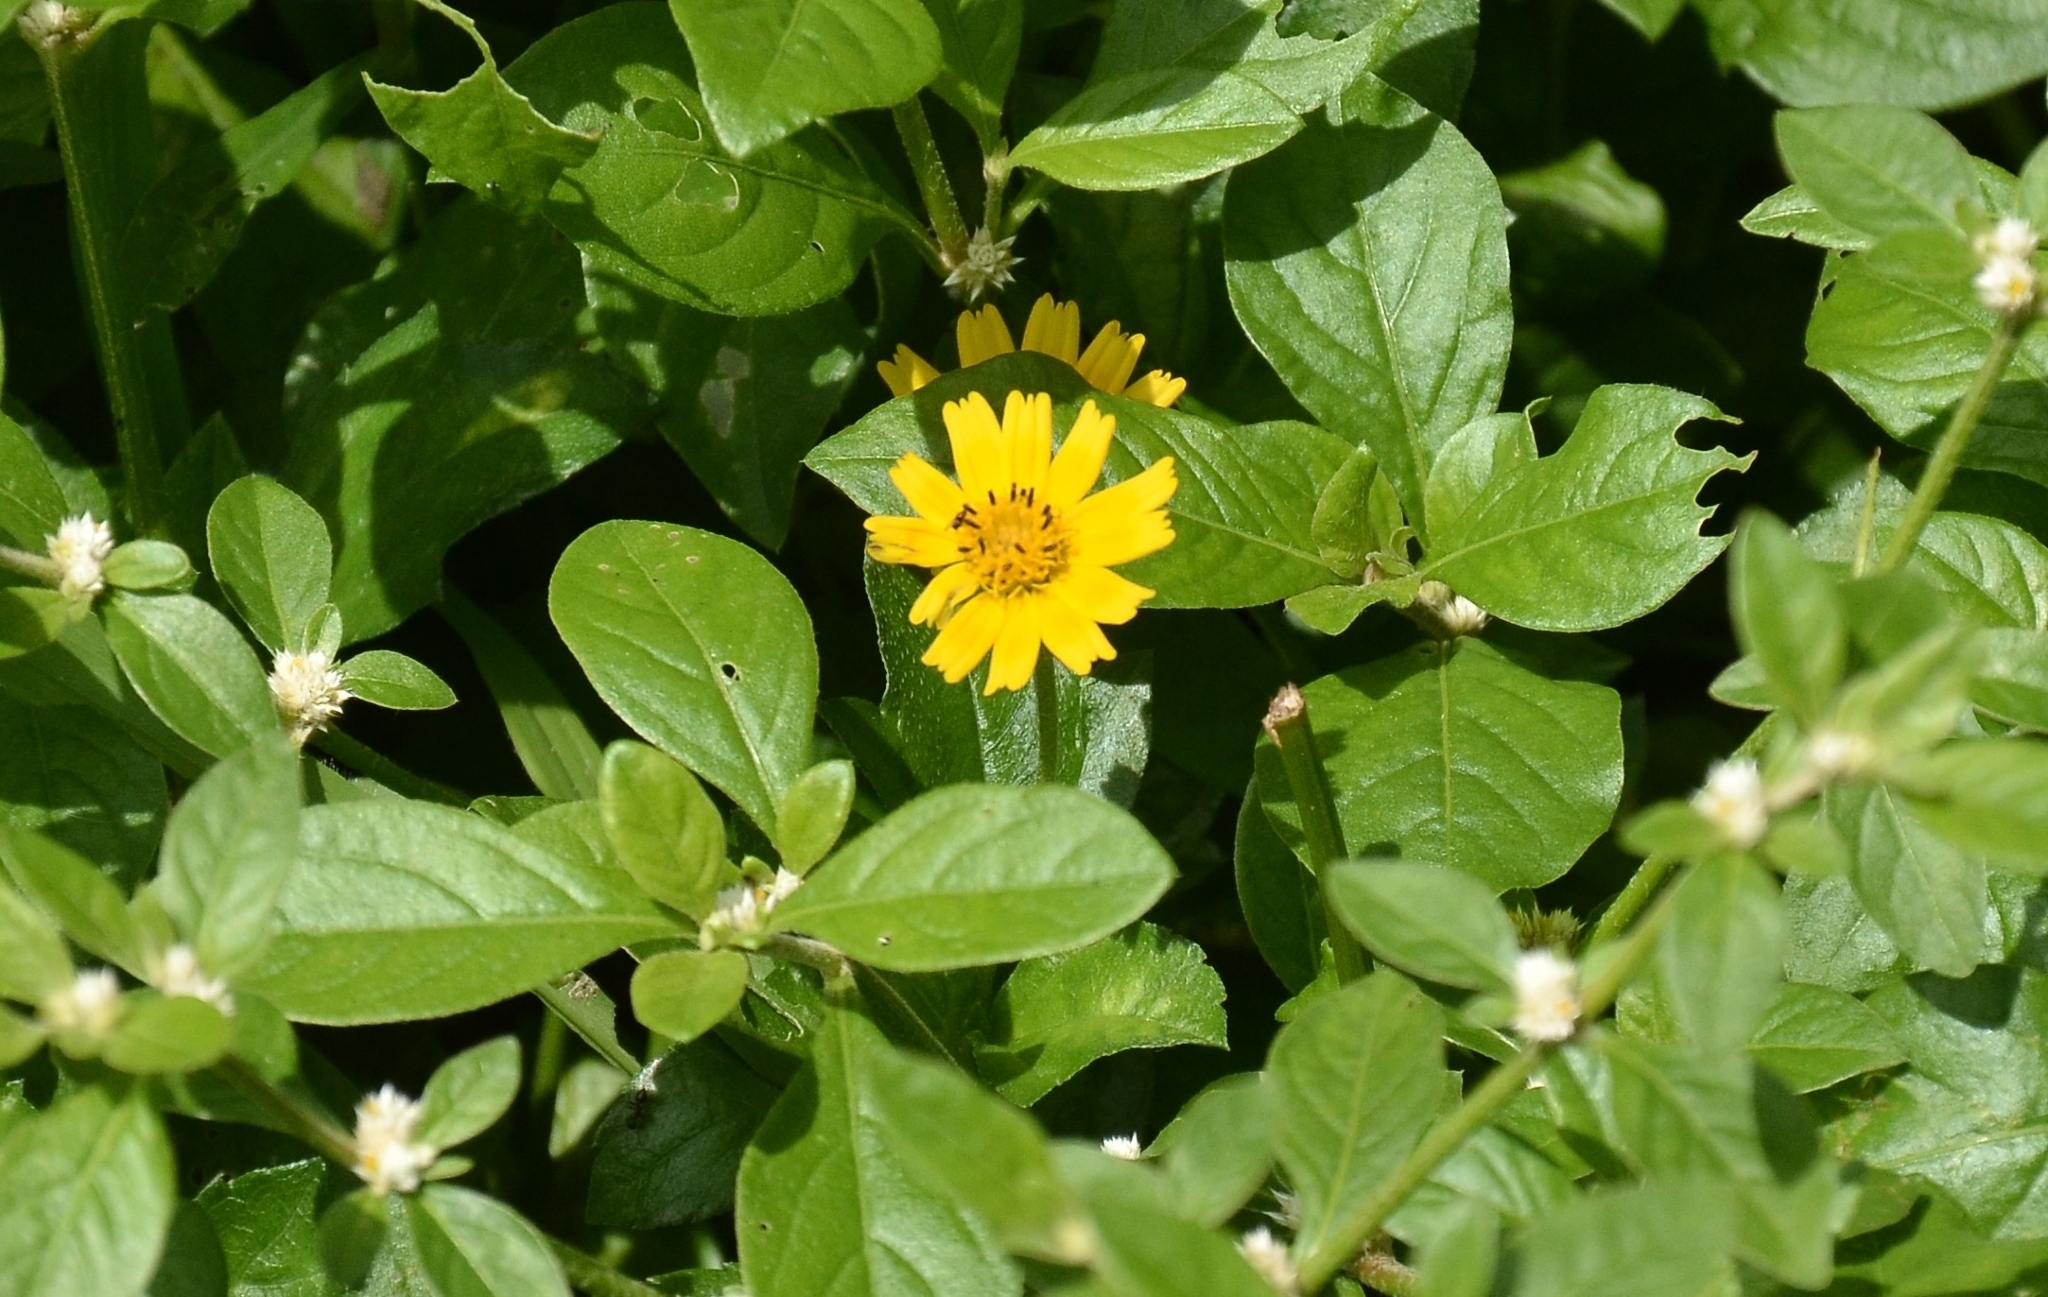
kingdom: Plantae
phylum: Tracheophyta
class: Magnoliopsida
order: Asterales
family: Asteraceae
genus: Sphagneticola
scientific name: Sphagneticola trilobata
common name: Bay biscayne creeping-oxeye
